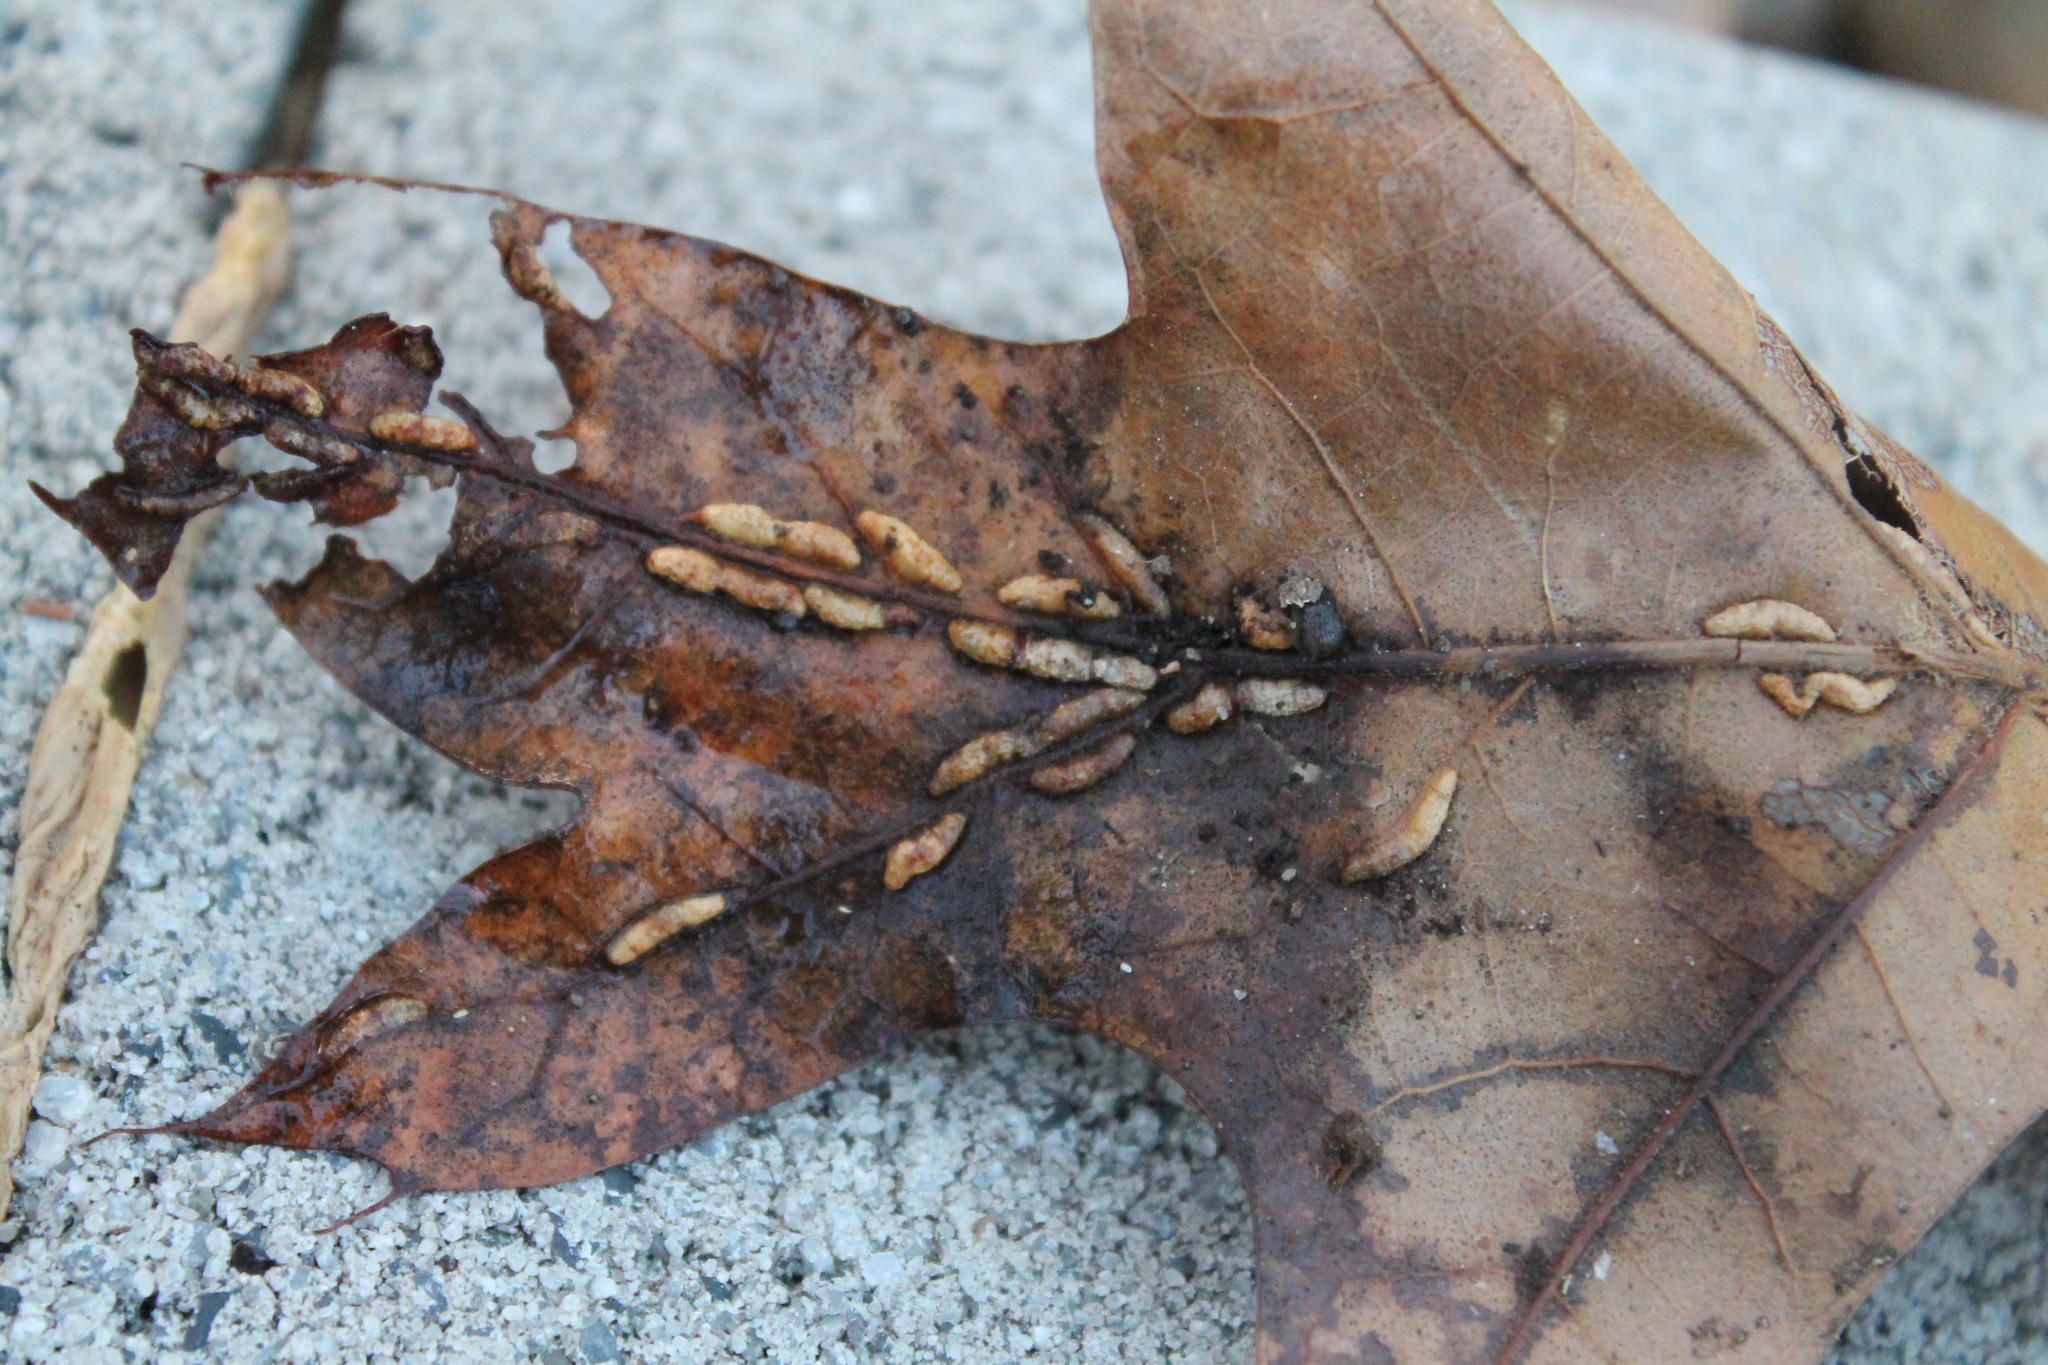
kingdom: Animalia
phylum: Arthropoda
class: Insecta
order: Diptera
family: Cecidomyiidae
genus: Macrodiplosis
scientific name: Macrodiplosis q-orucum
